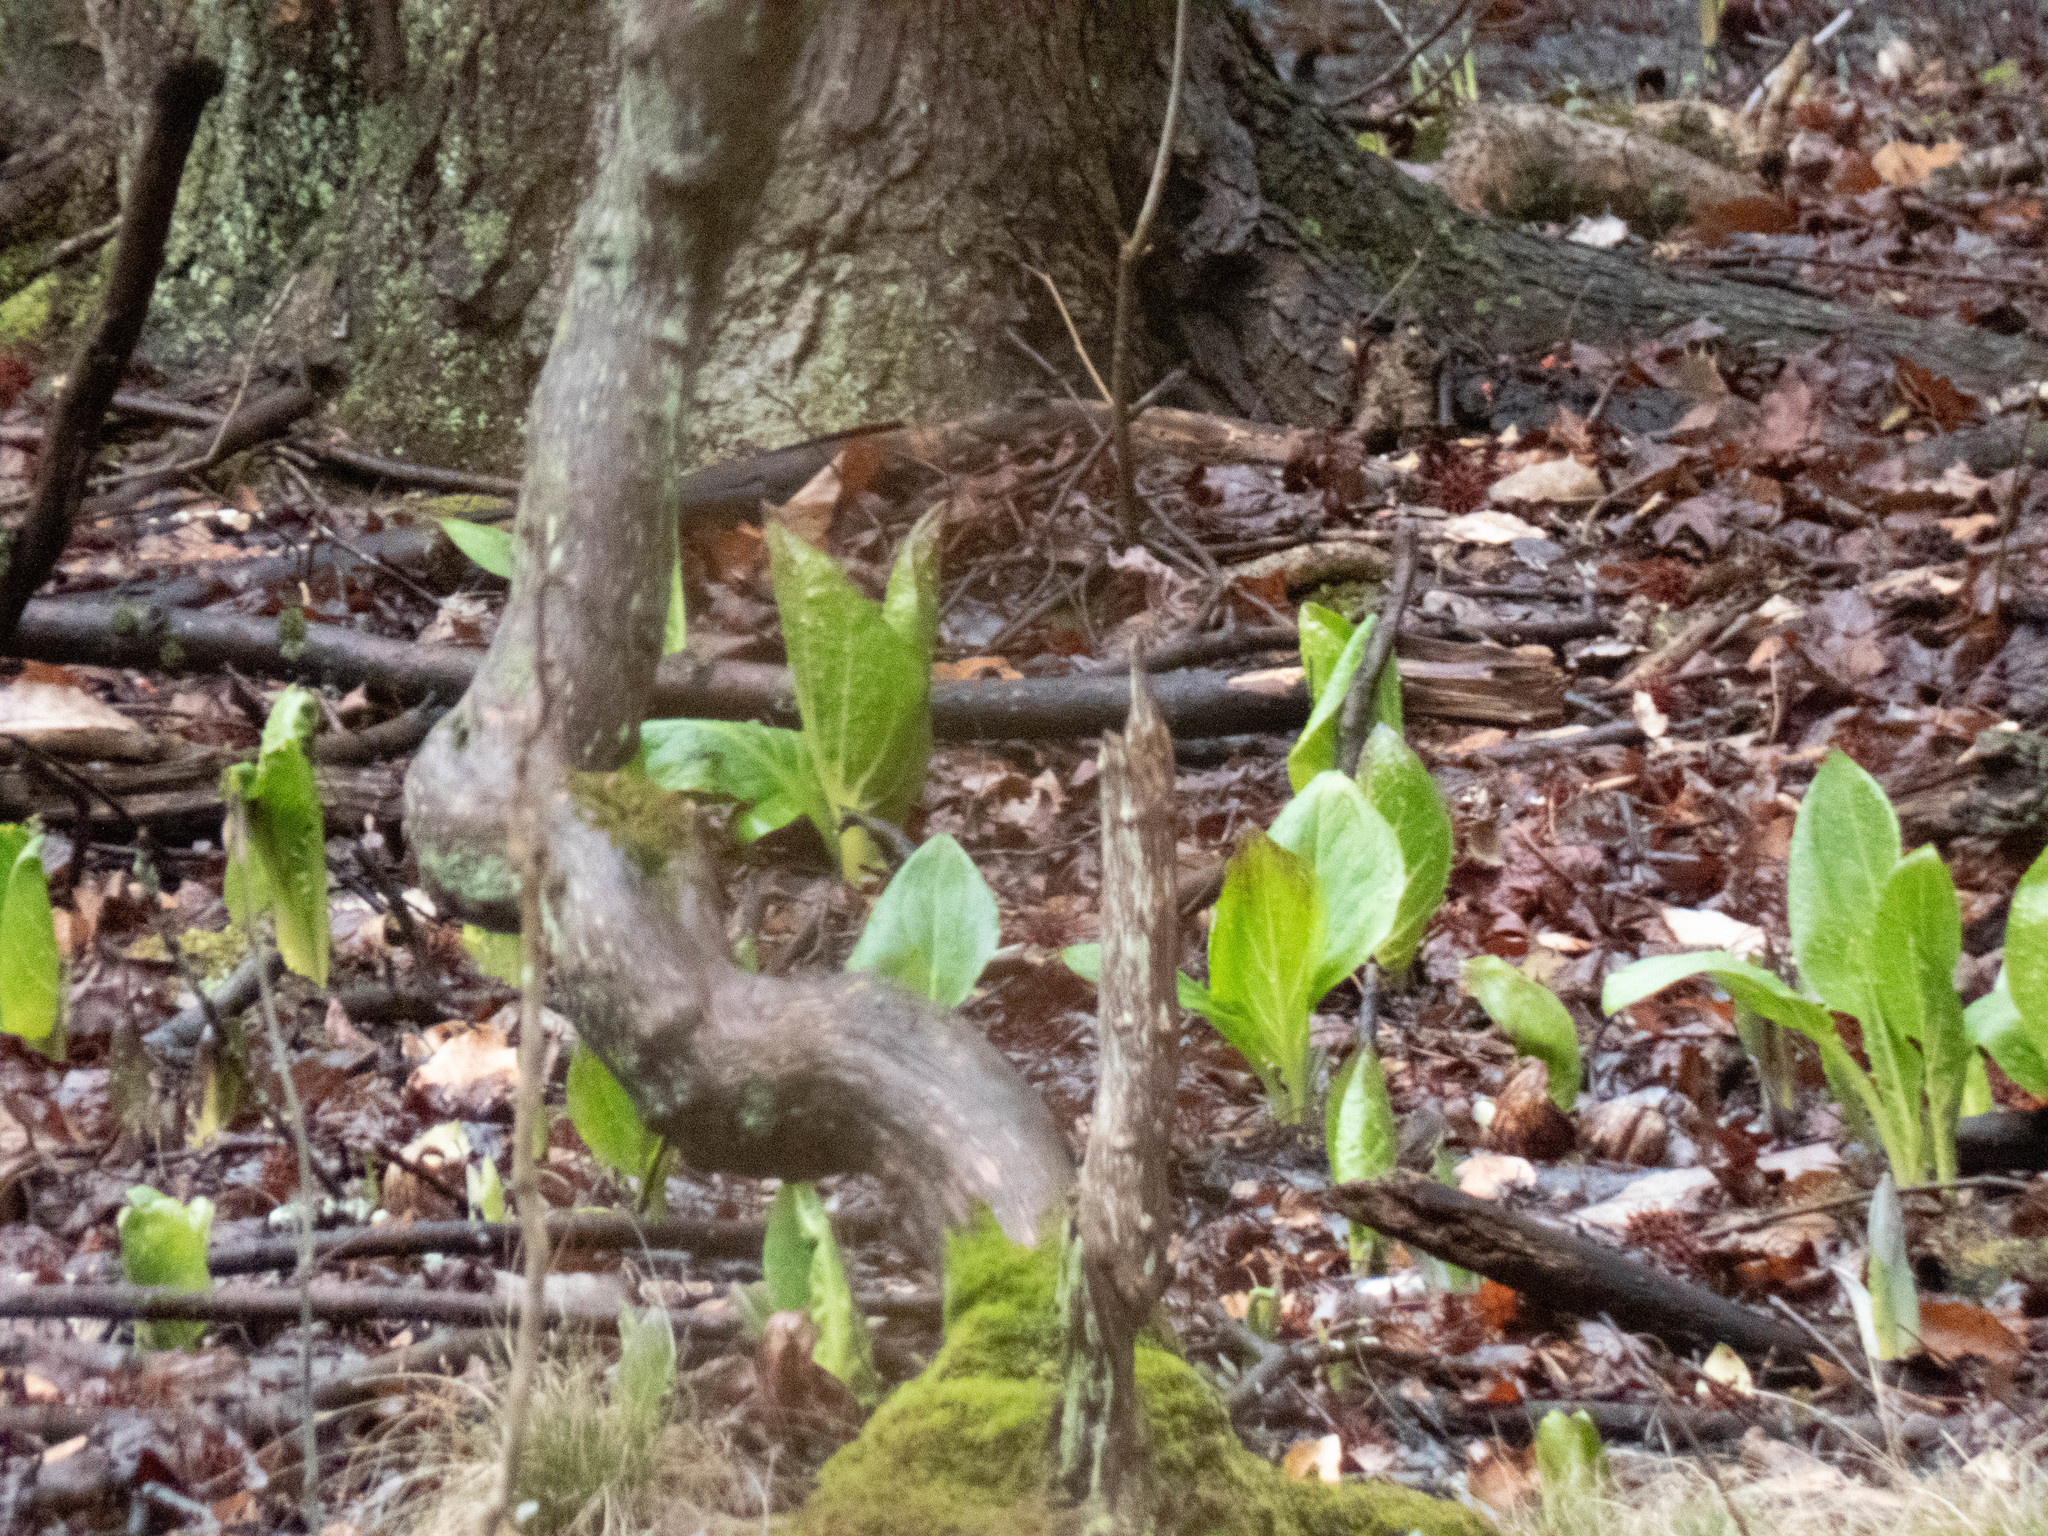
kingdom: Plantae
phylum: Tracheophyta
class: Liliopsida
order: Alismatales
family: Araceae
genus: Symplocarpus
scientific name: Symplocarpus foetidus
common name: Eastern skunk cabbage
